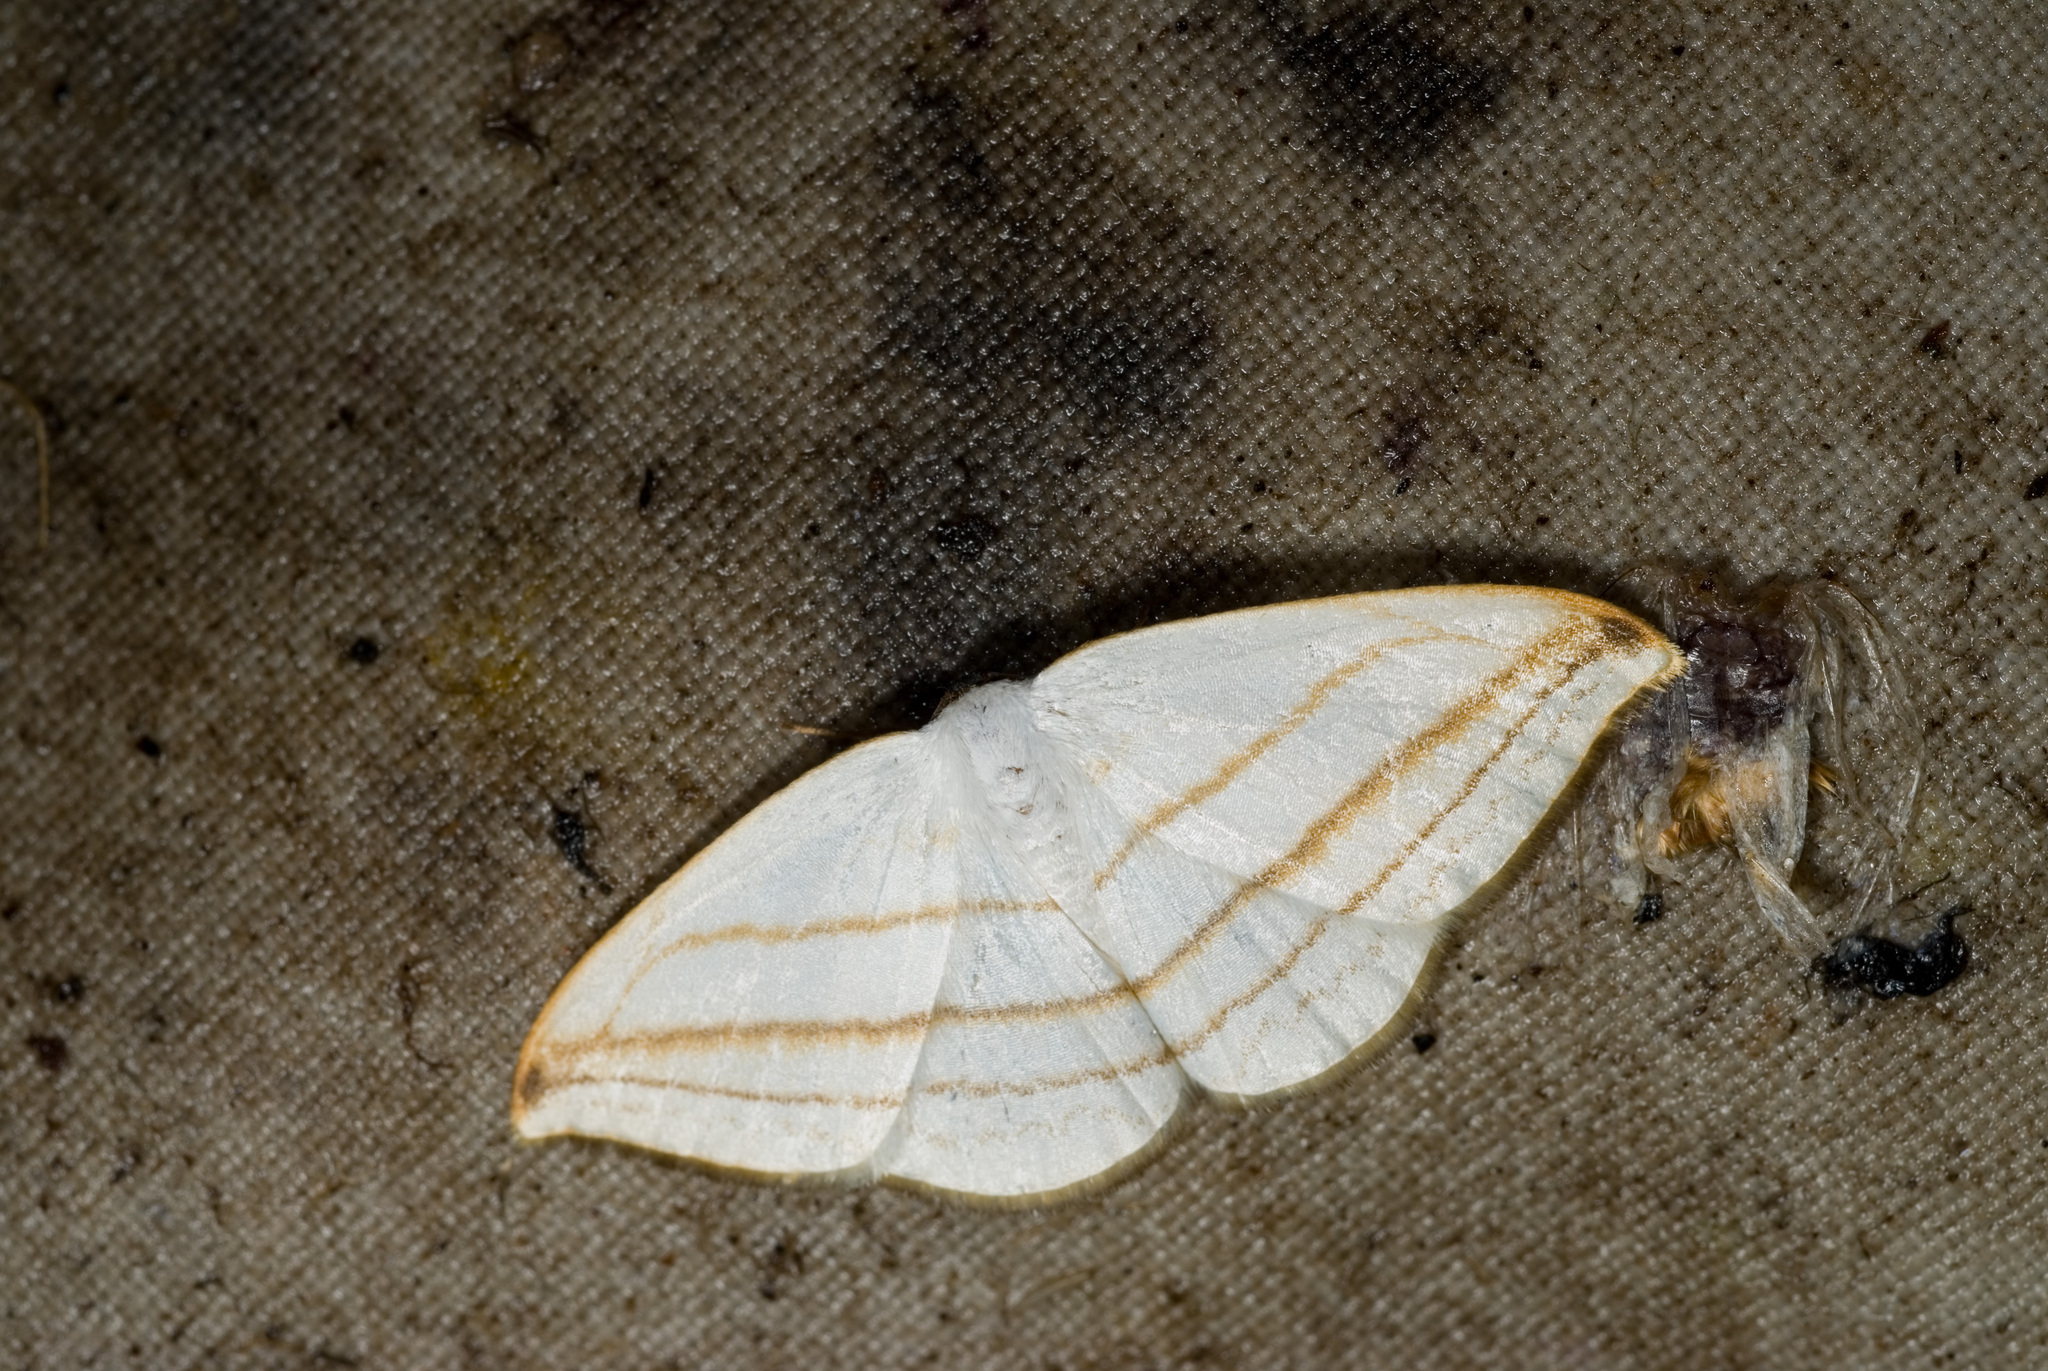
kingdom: Animalia
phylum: Arthropoda
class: Insecta
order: Lepidoptera
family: Drepanidae
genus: Ditrigona
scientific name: Ditrigona conflexaria
